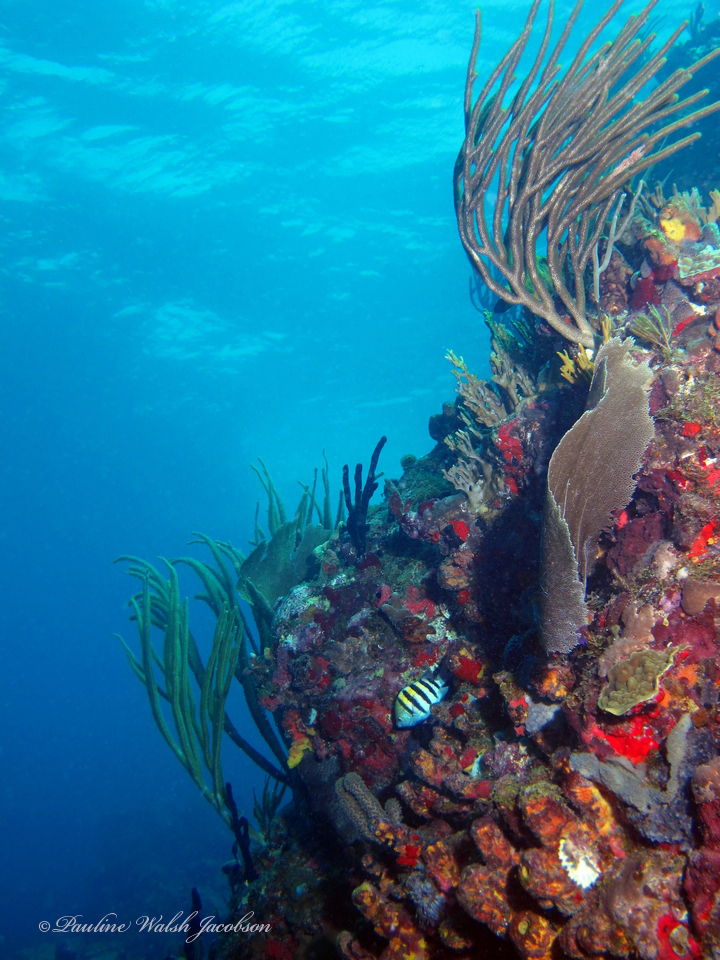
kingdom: Animalia
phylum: Chordata
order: Perciformes
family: Pomacentridae
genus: Abudefduf
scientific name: Abudefduf saxatilis
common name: Sergeant major
